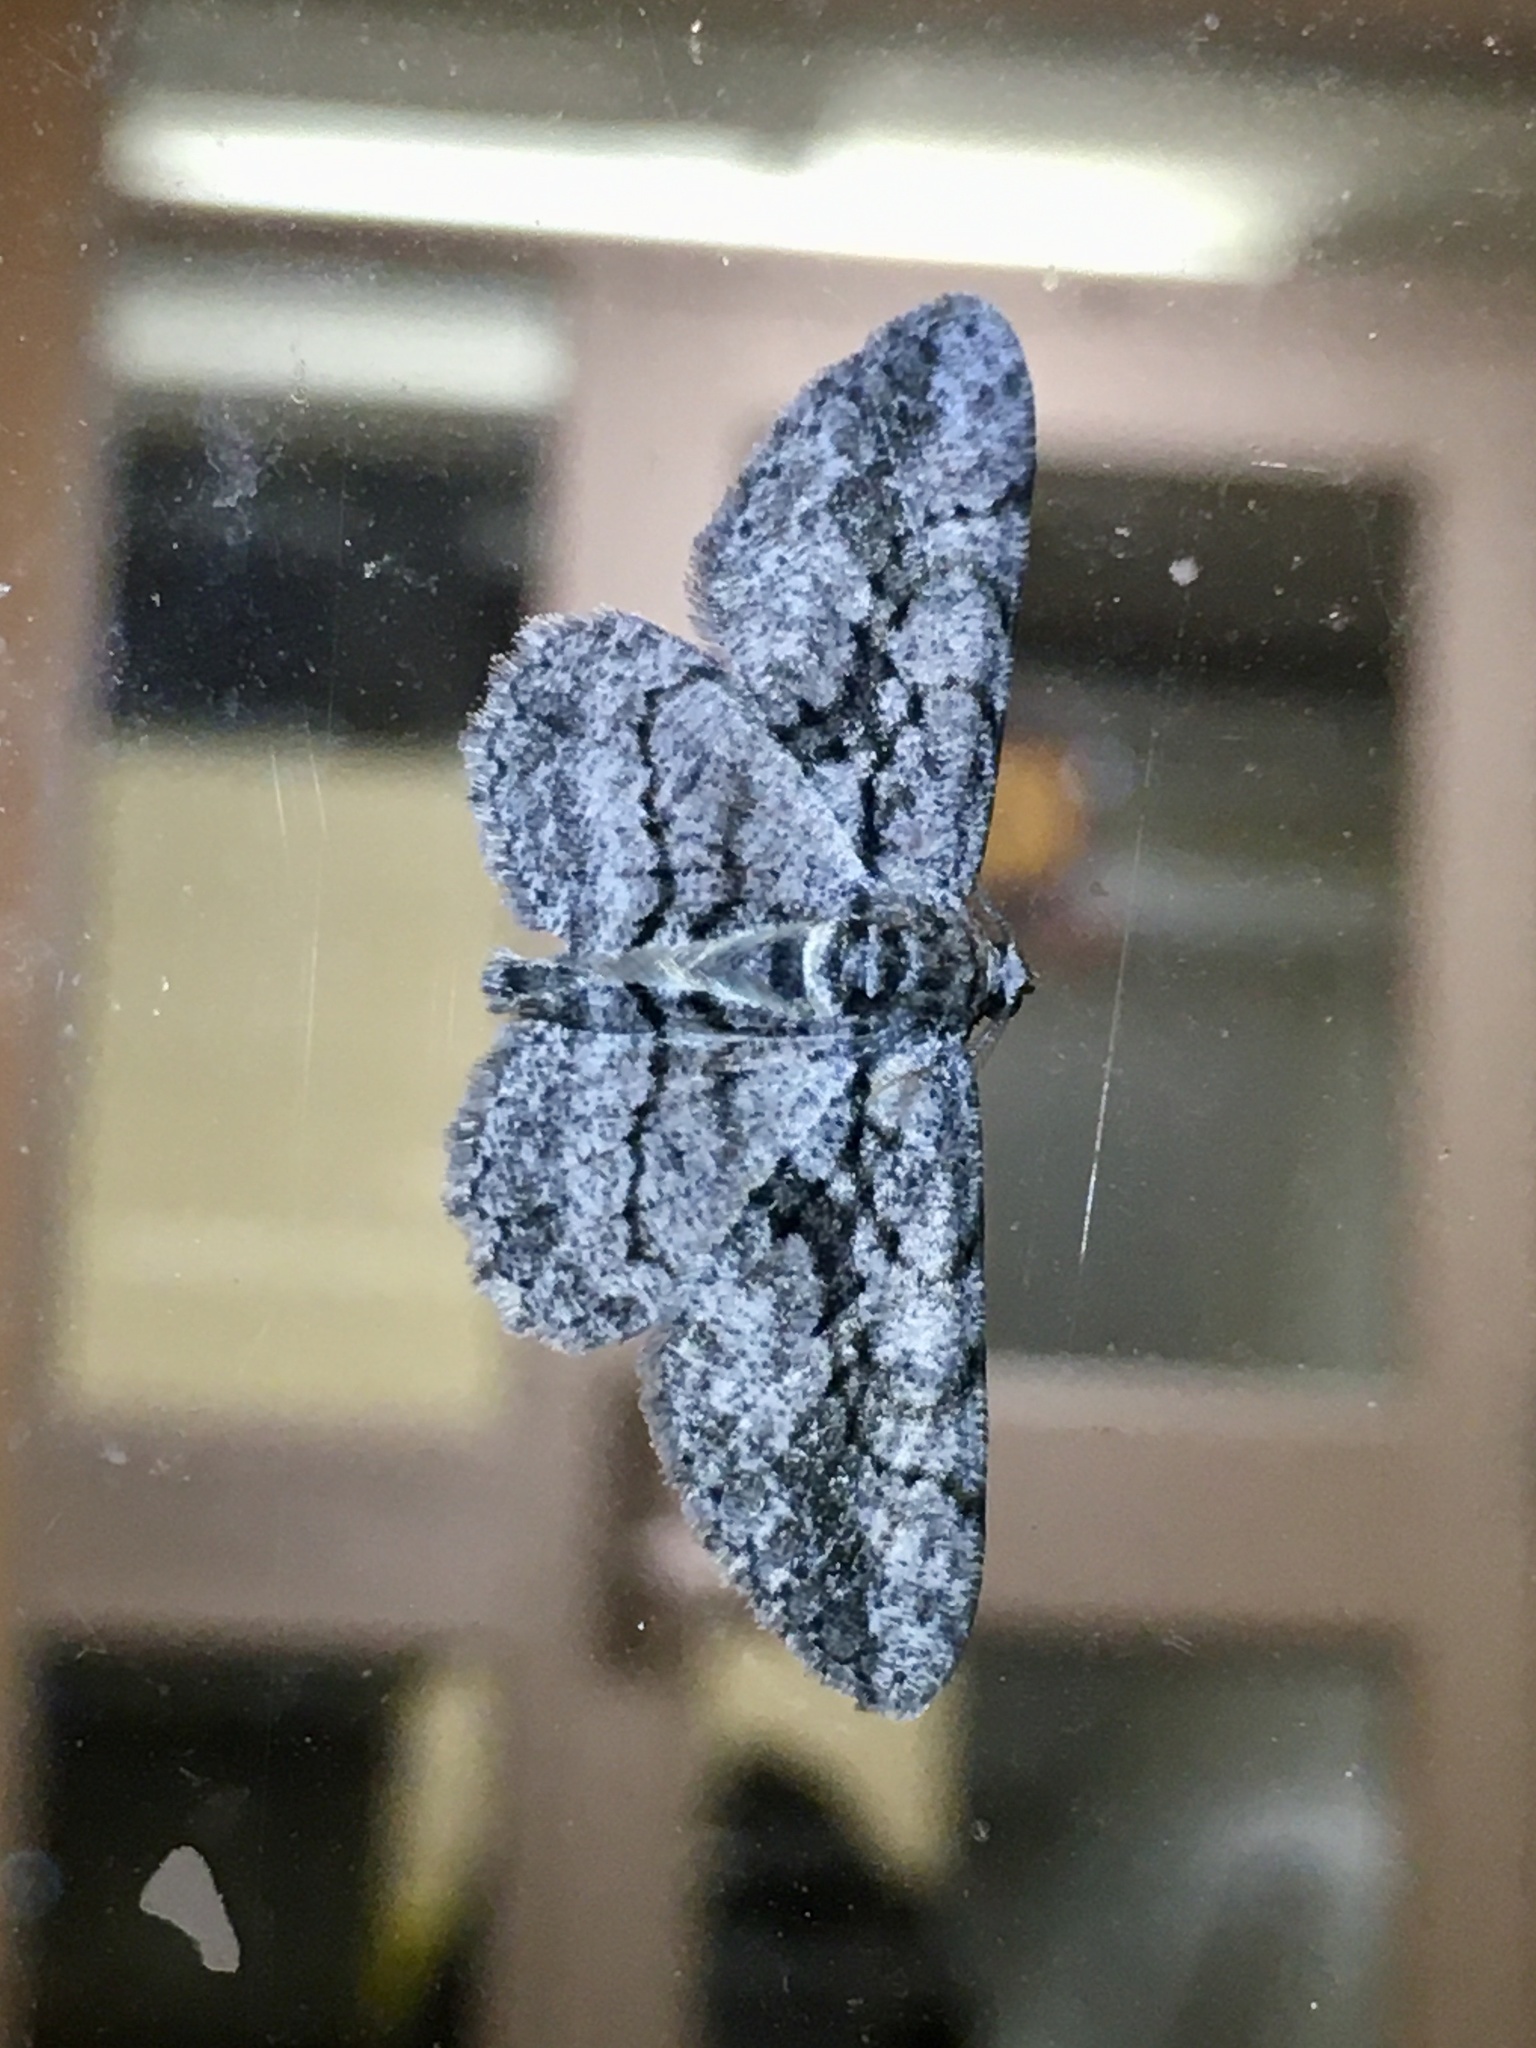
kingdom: Animalia
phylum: Arthropoda
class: Insecta
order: Lepidoptera
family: Geometridae
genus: Anavitrinella
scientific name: Anavitrinella pampinaria
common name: Common gray
